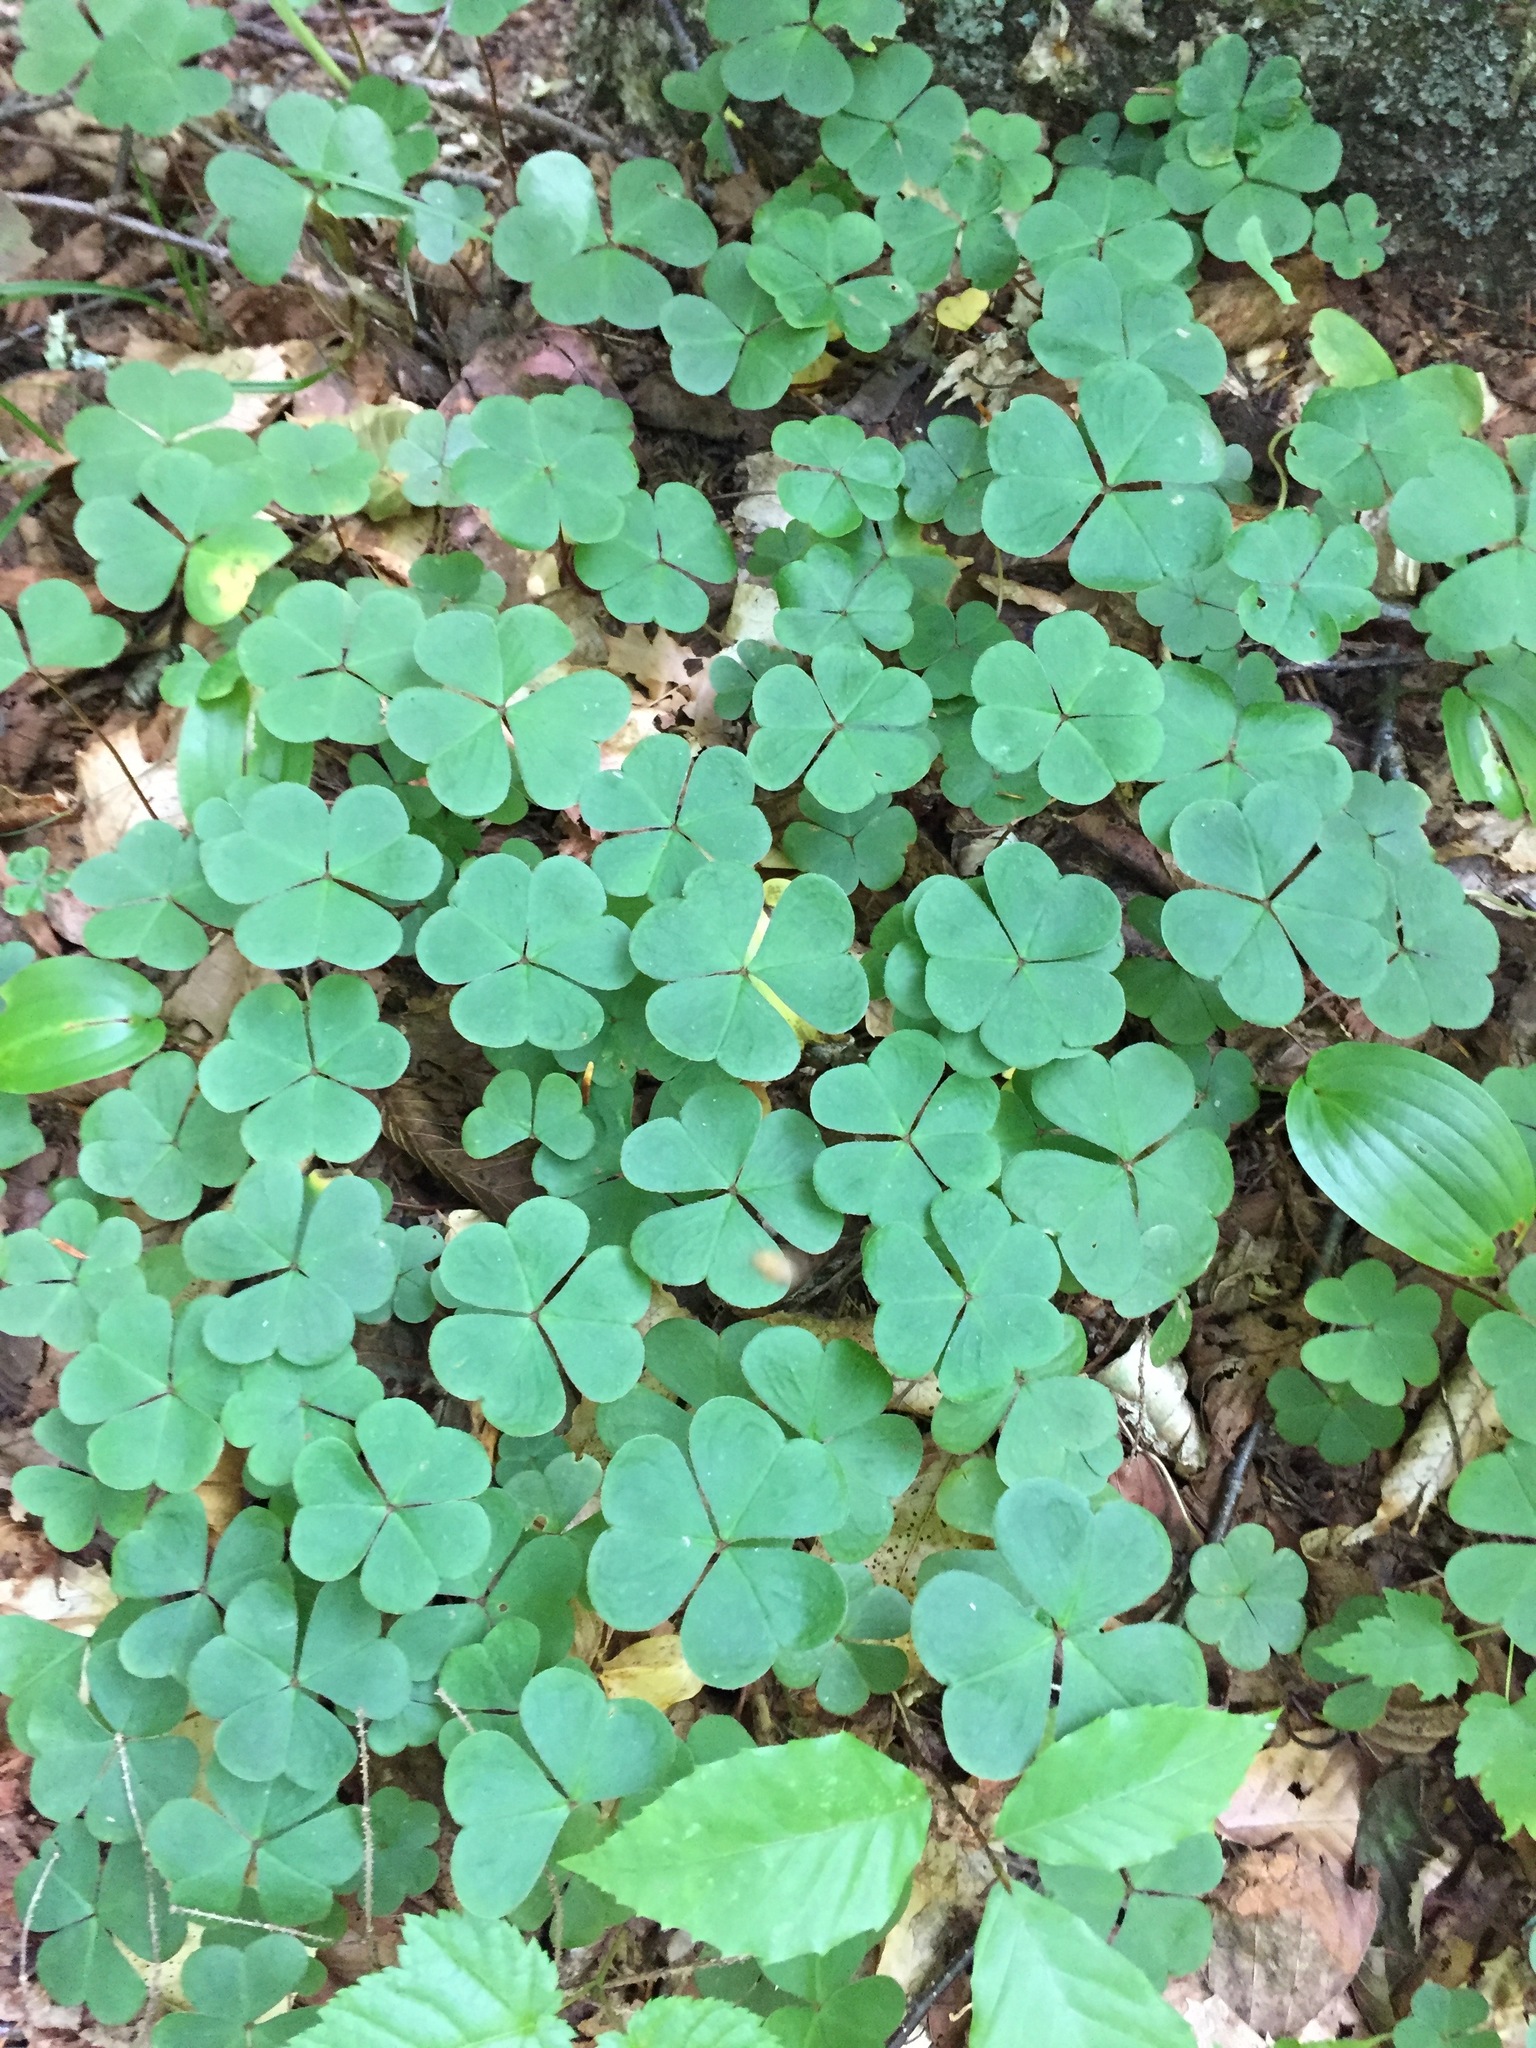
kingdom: Plantae
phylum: Tracheophyta
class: Magnoliopsida
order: Oxalidales
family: Oxalidaceae
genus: Oxalis
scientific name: Oxalis montana
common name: American wood-sorrel
